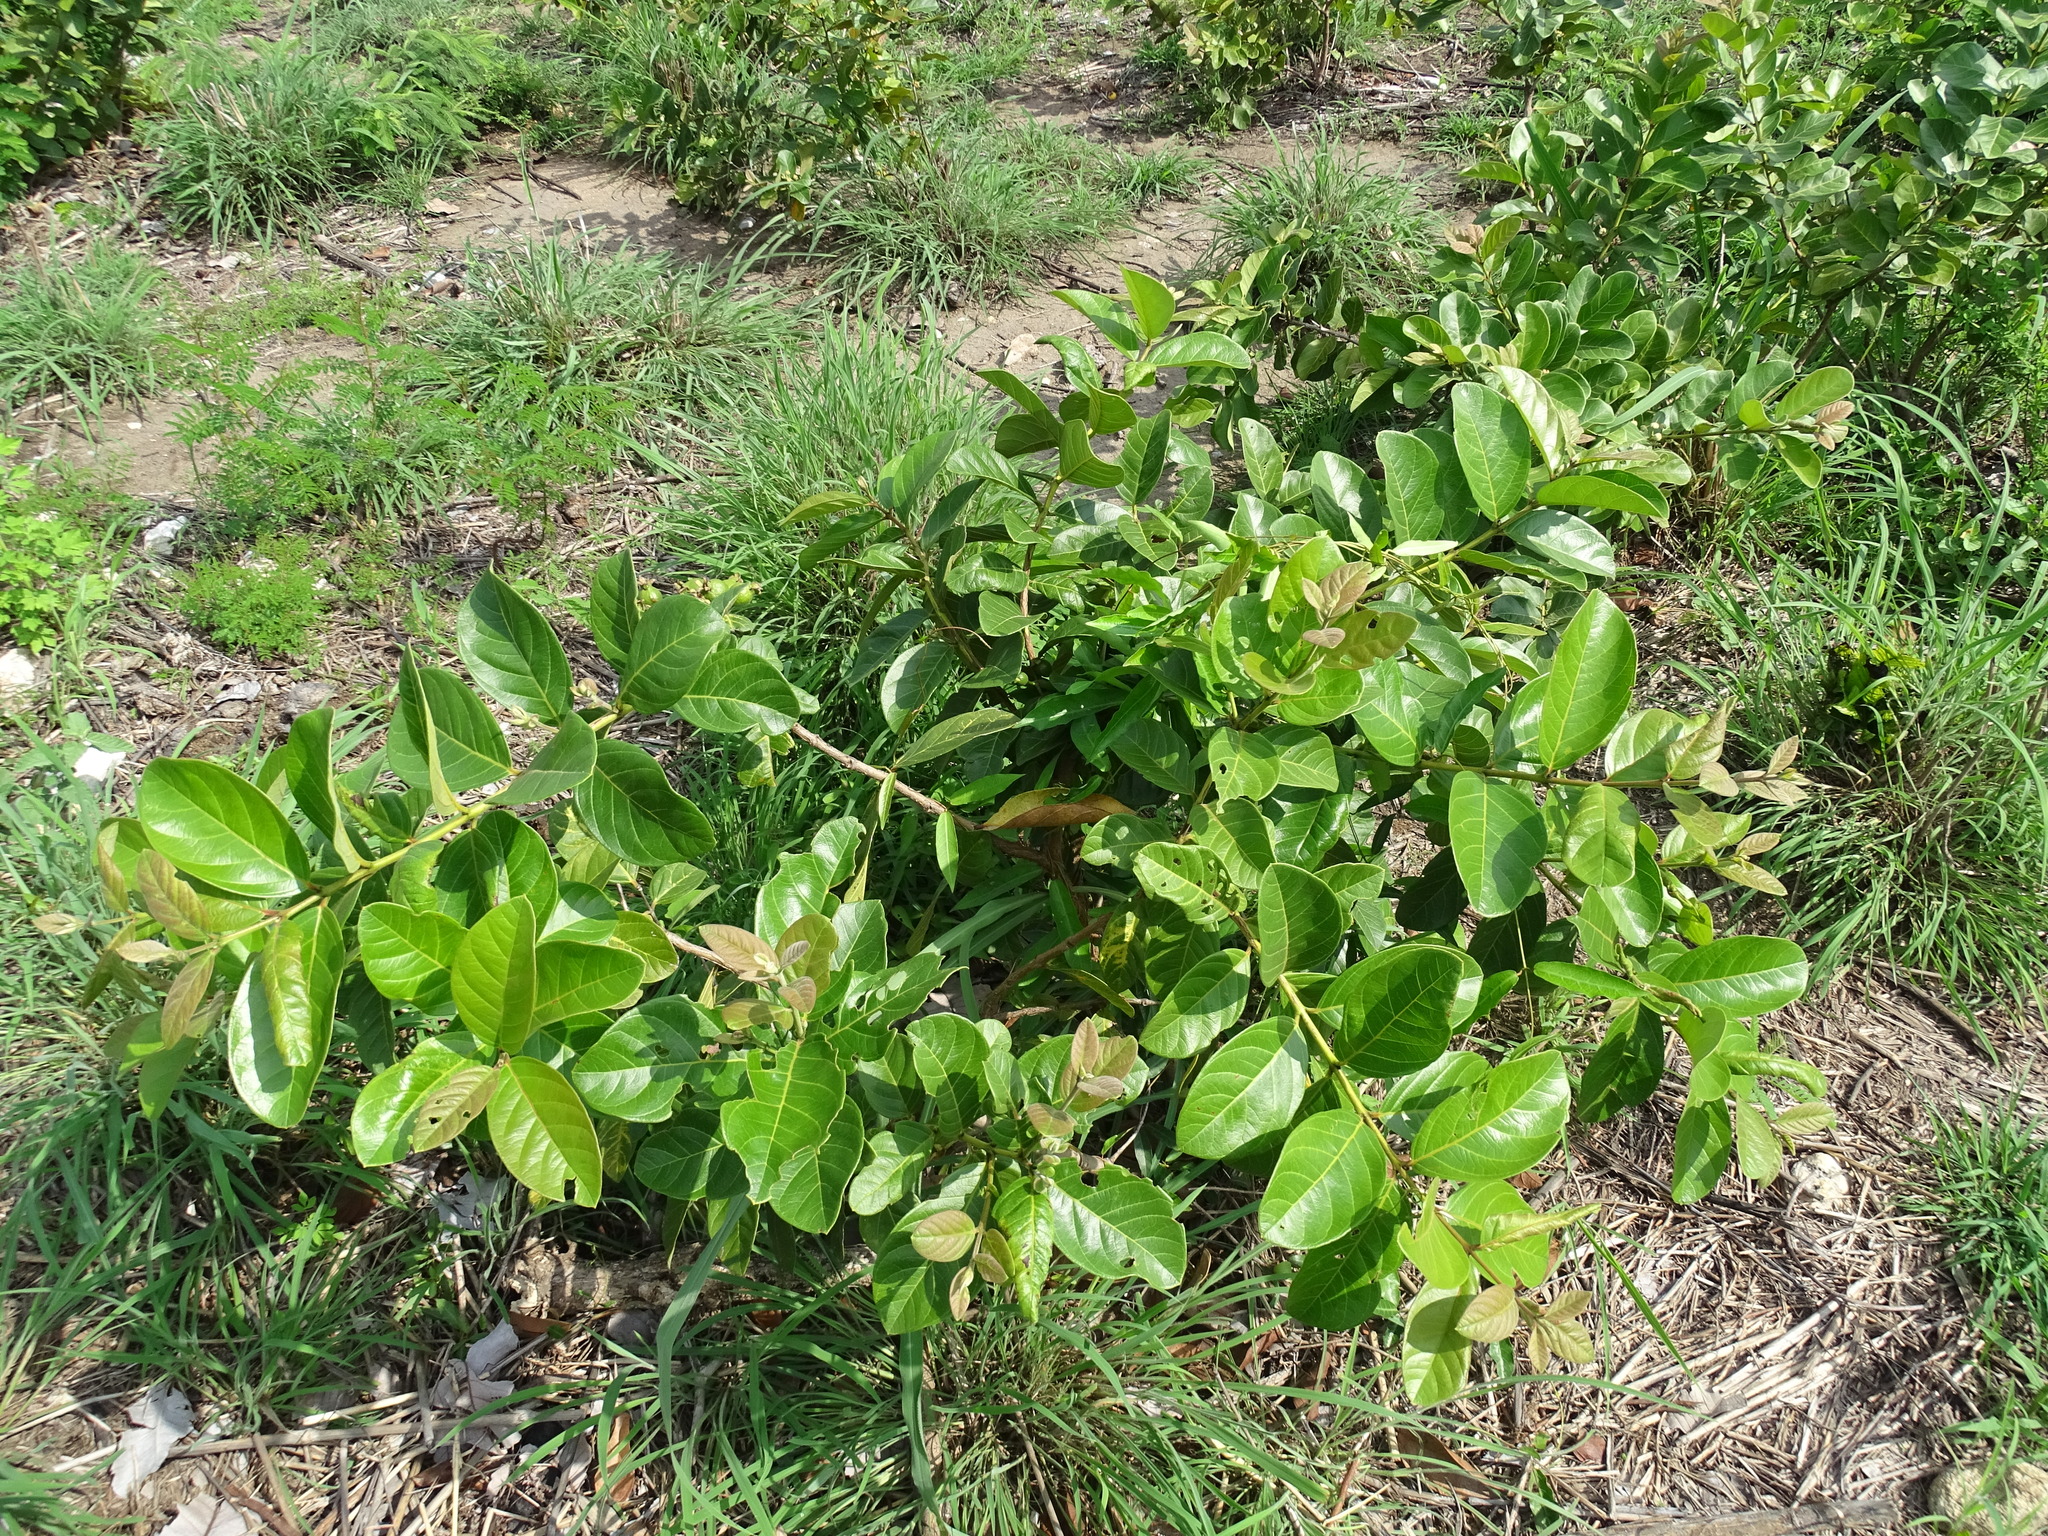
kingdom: Plantae
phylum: Tracheophyta
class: Magnoliopsida
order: Myrtales
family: Myrtaceae
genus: Psidium
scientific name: Psidium guineense
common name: Brazilian guava
